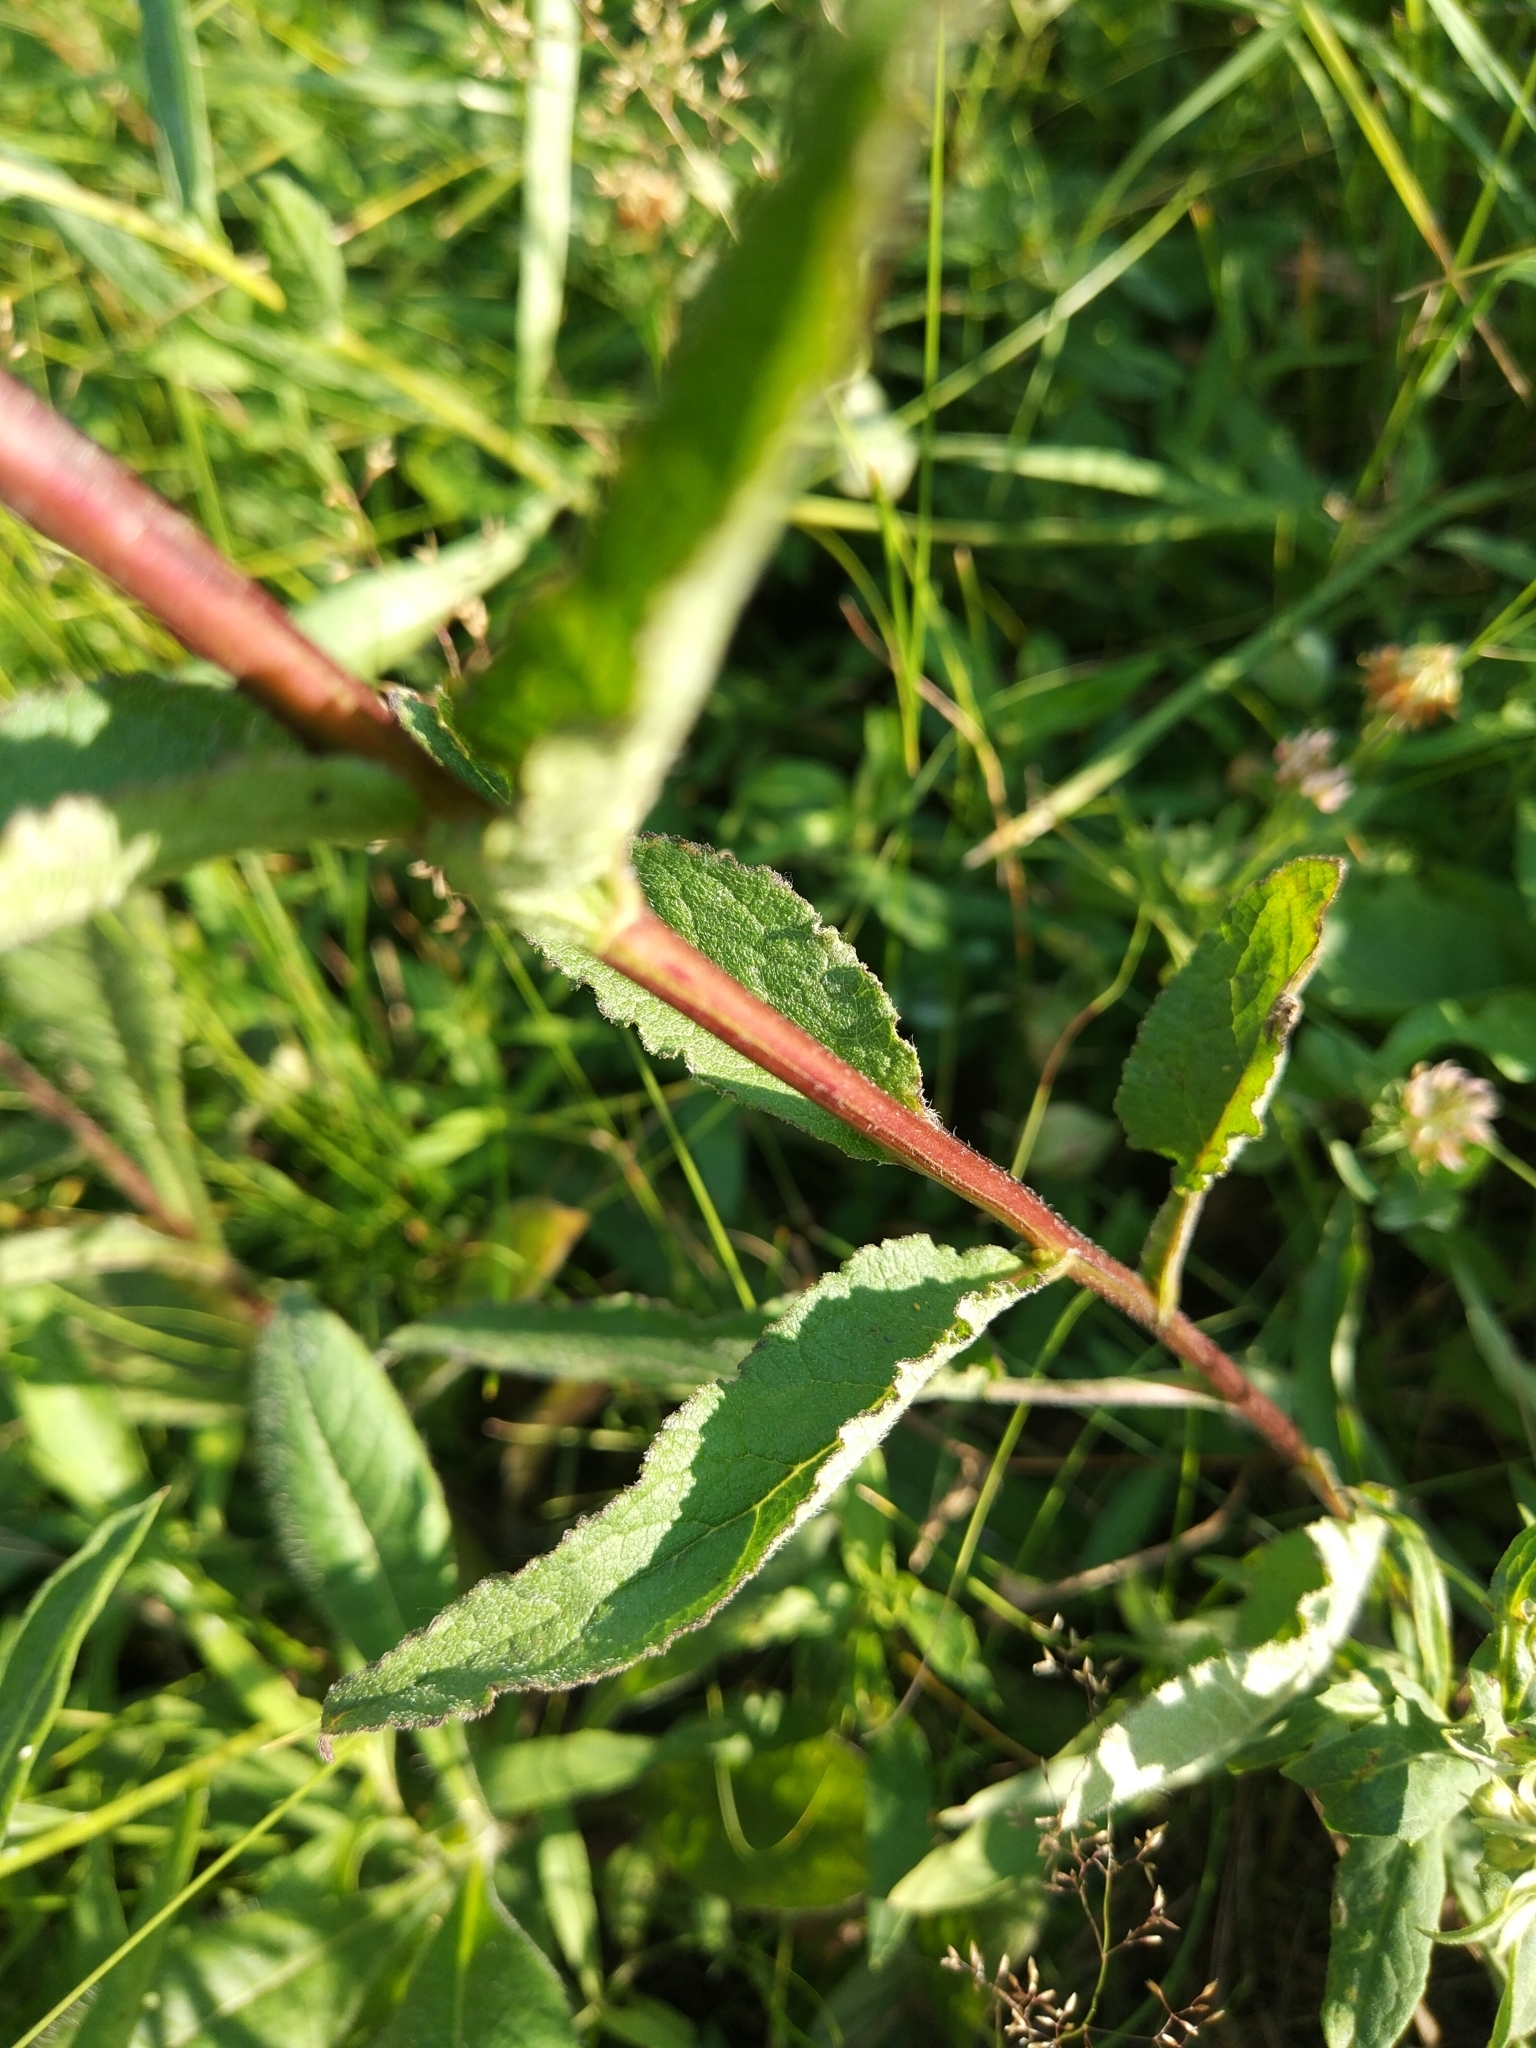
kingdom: Plantae
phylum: Tracheophyta
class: Magnoliopsida
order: Asterales
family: Campanulaceae
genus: Campanula
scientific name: Campanula glomerata
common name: Clustered bellflower
